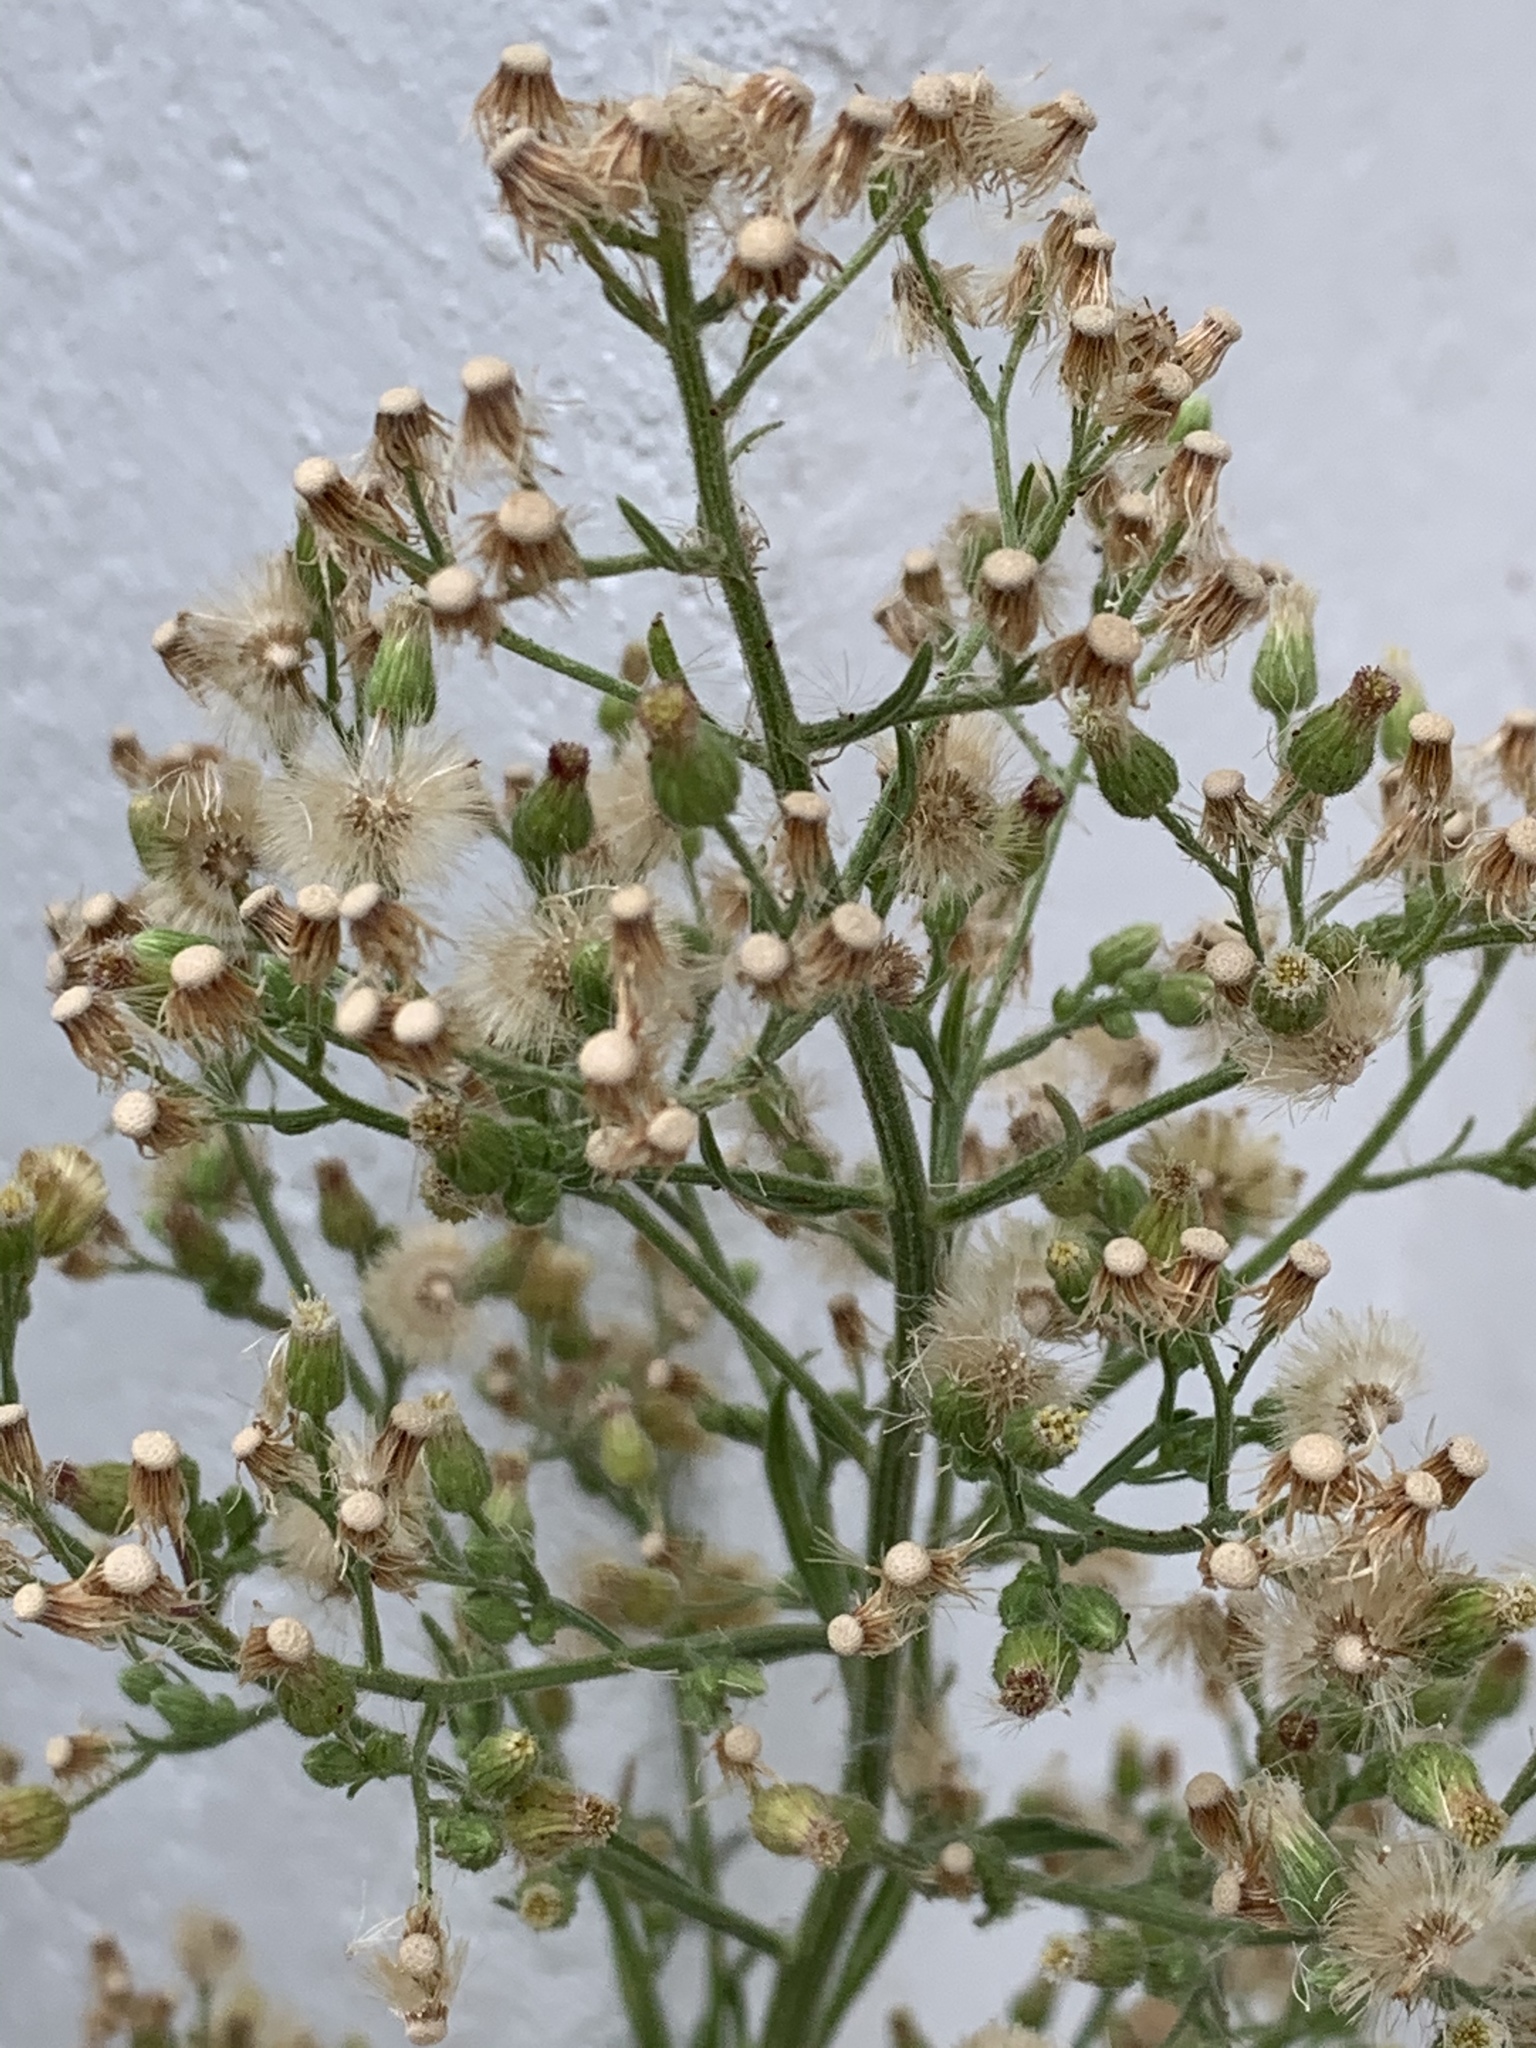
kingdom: Plantae
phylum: Tracheophyta
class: Magnoliopsida
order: Asterales
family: Asteraceae
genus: Erigeron
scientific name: Erigeron sumatrensis
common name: Daisy
